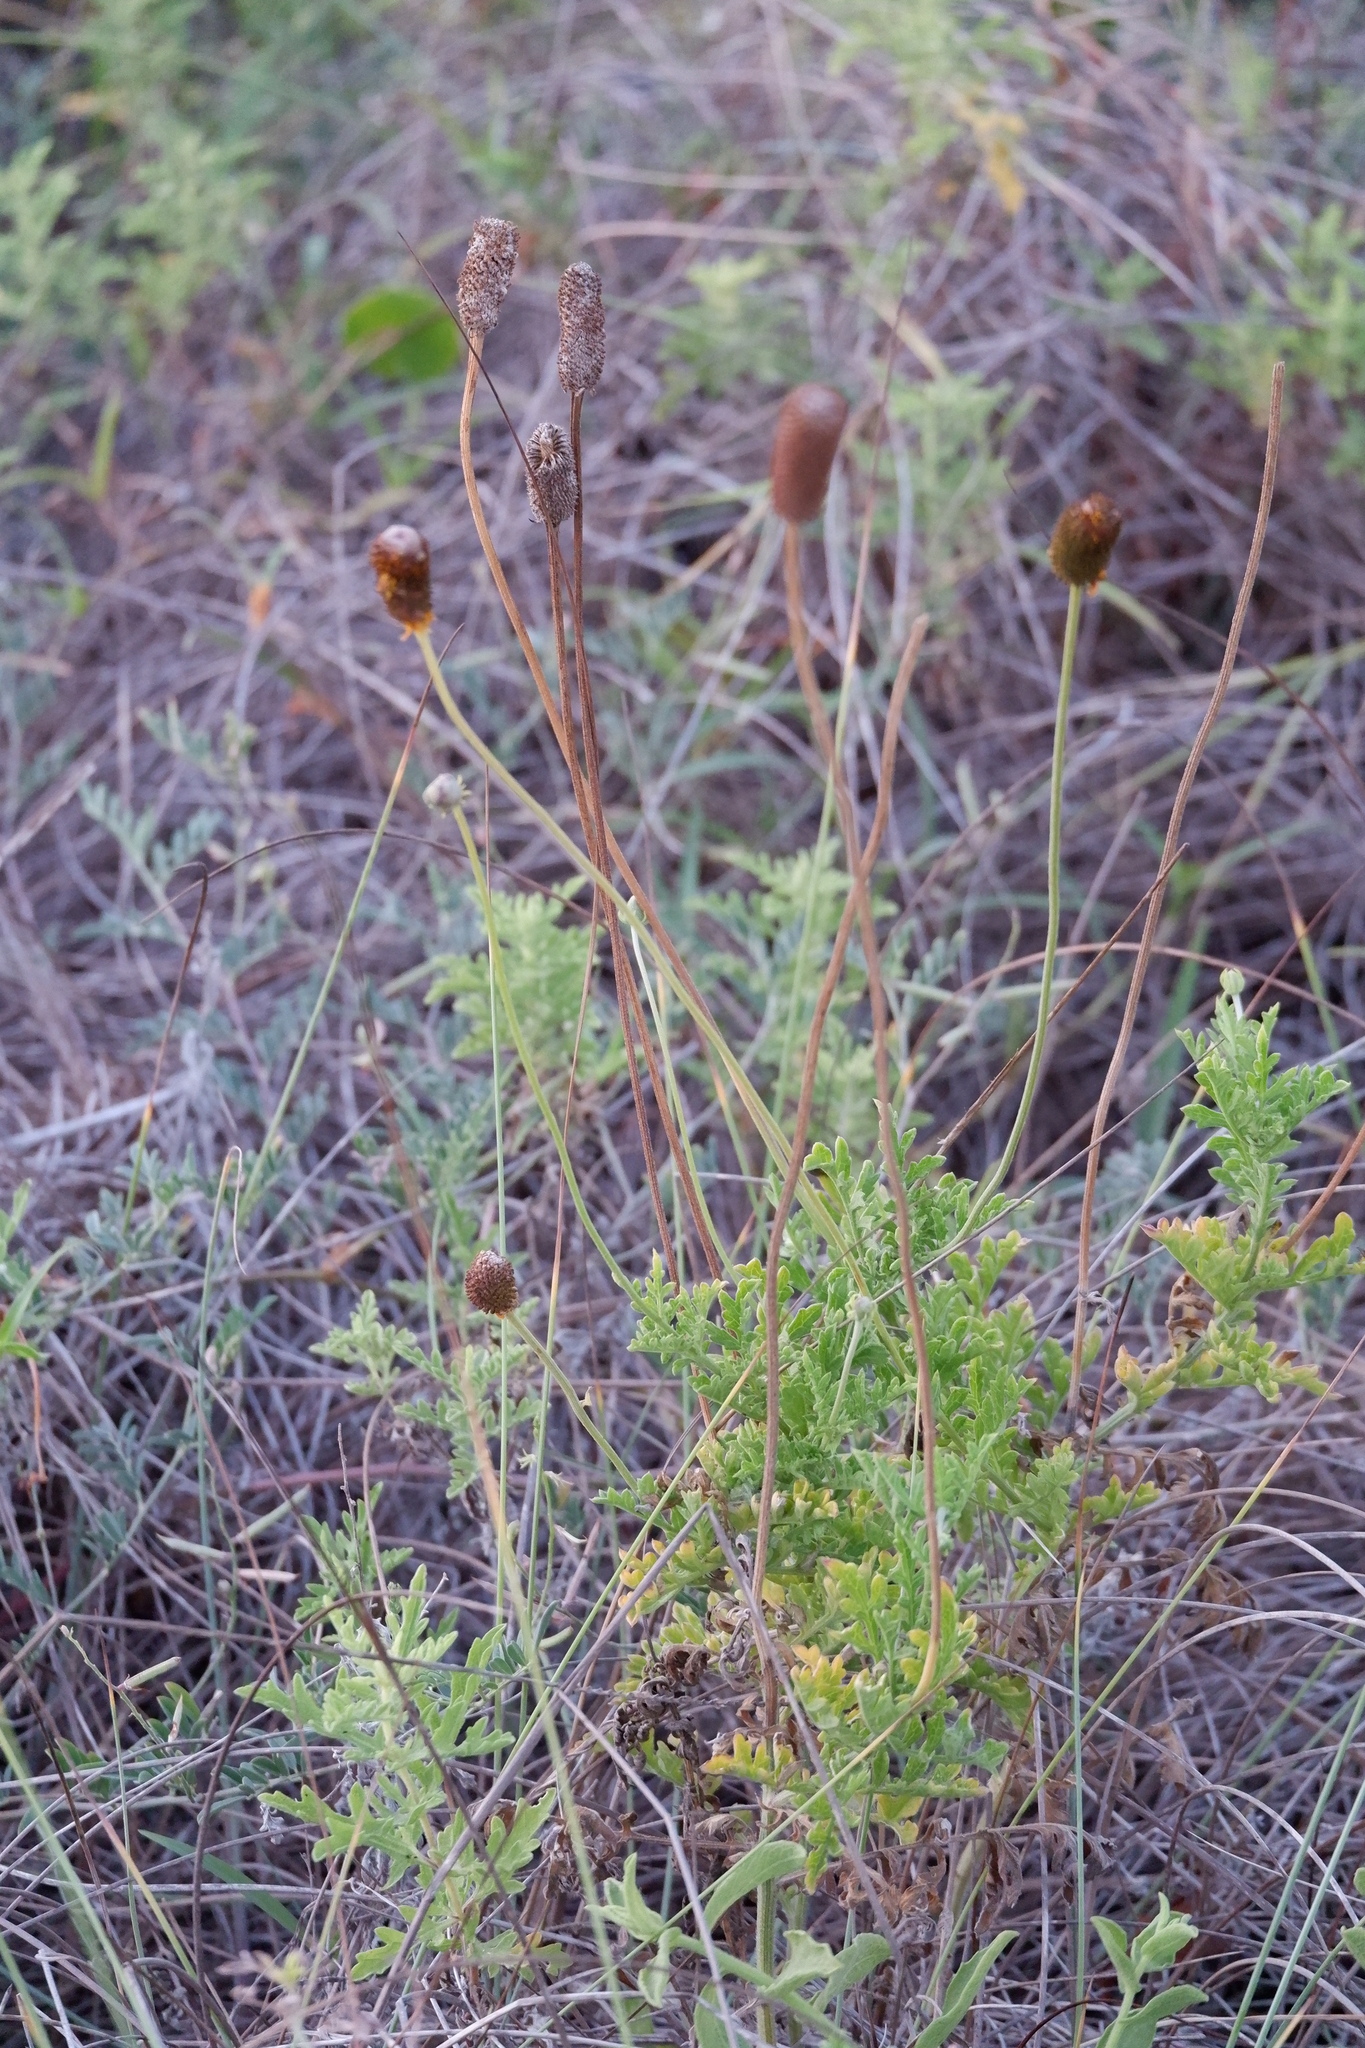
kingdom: Plantae
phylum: Tracheophyta
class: Magnoliopsida
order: Asterales
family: Asteraceae
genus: Ratibida
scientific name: Ratibida peduncularis
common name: Naked prairie-coneflower
